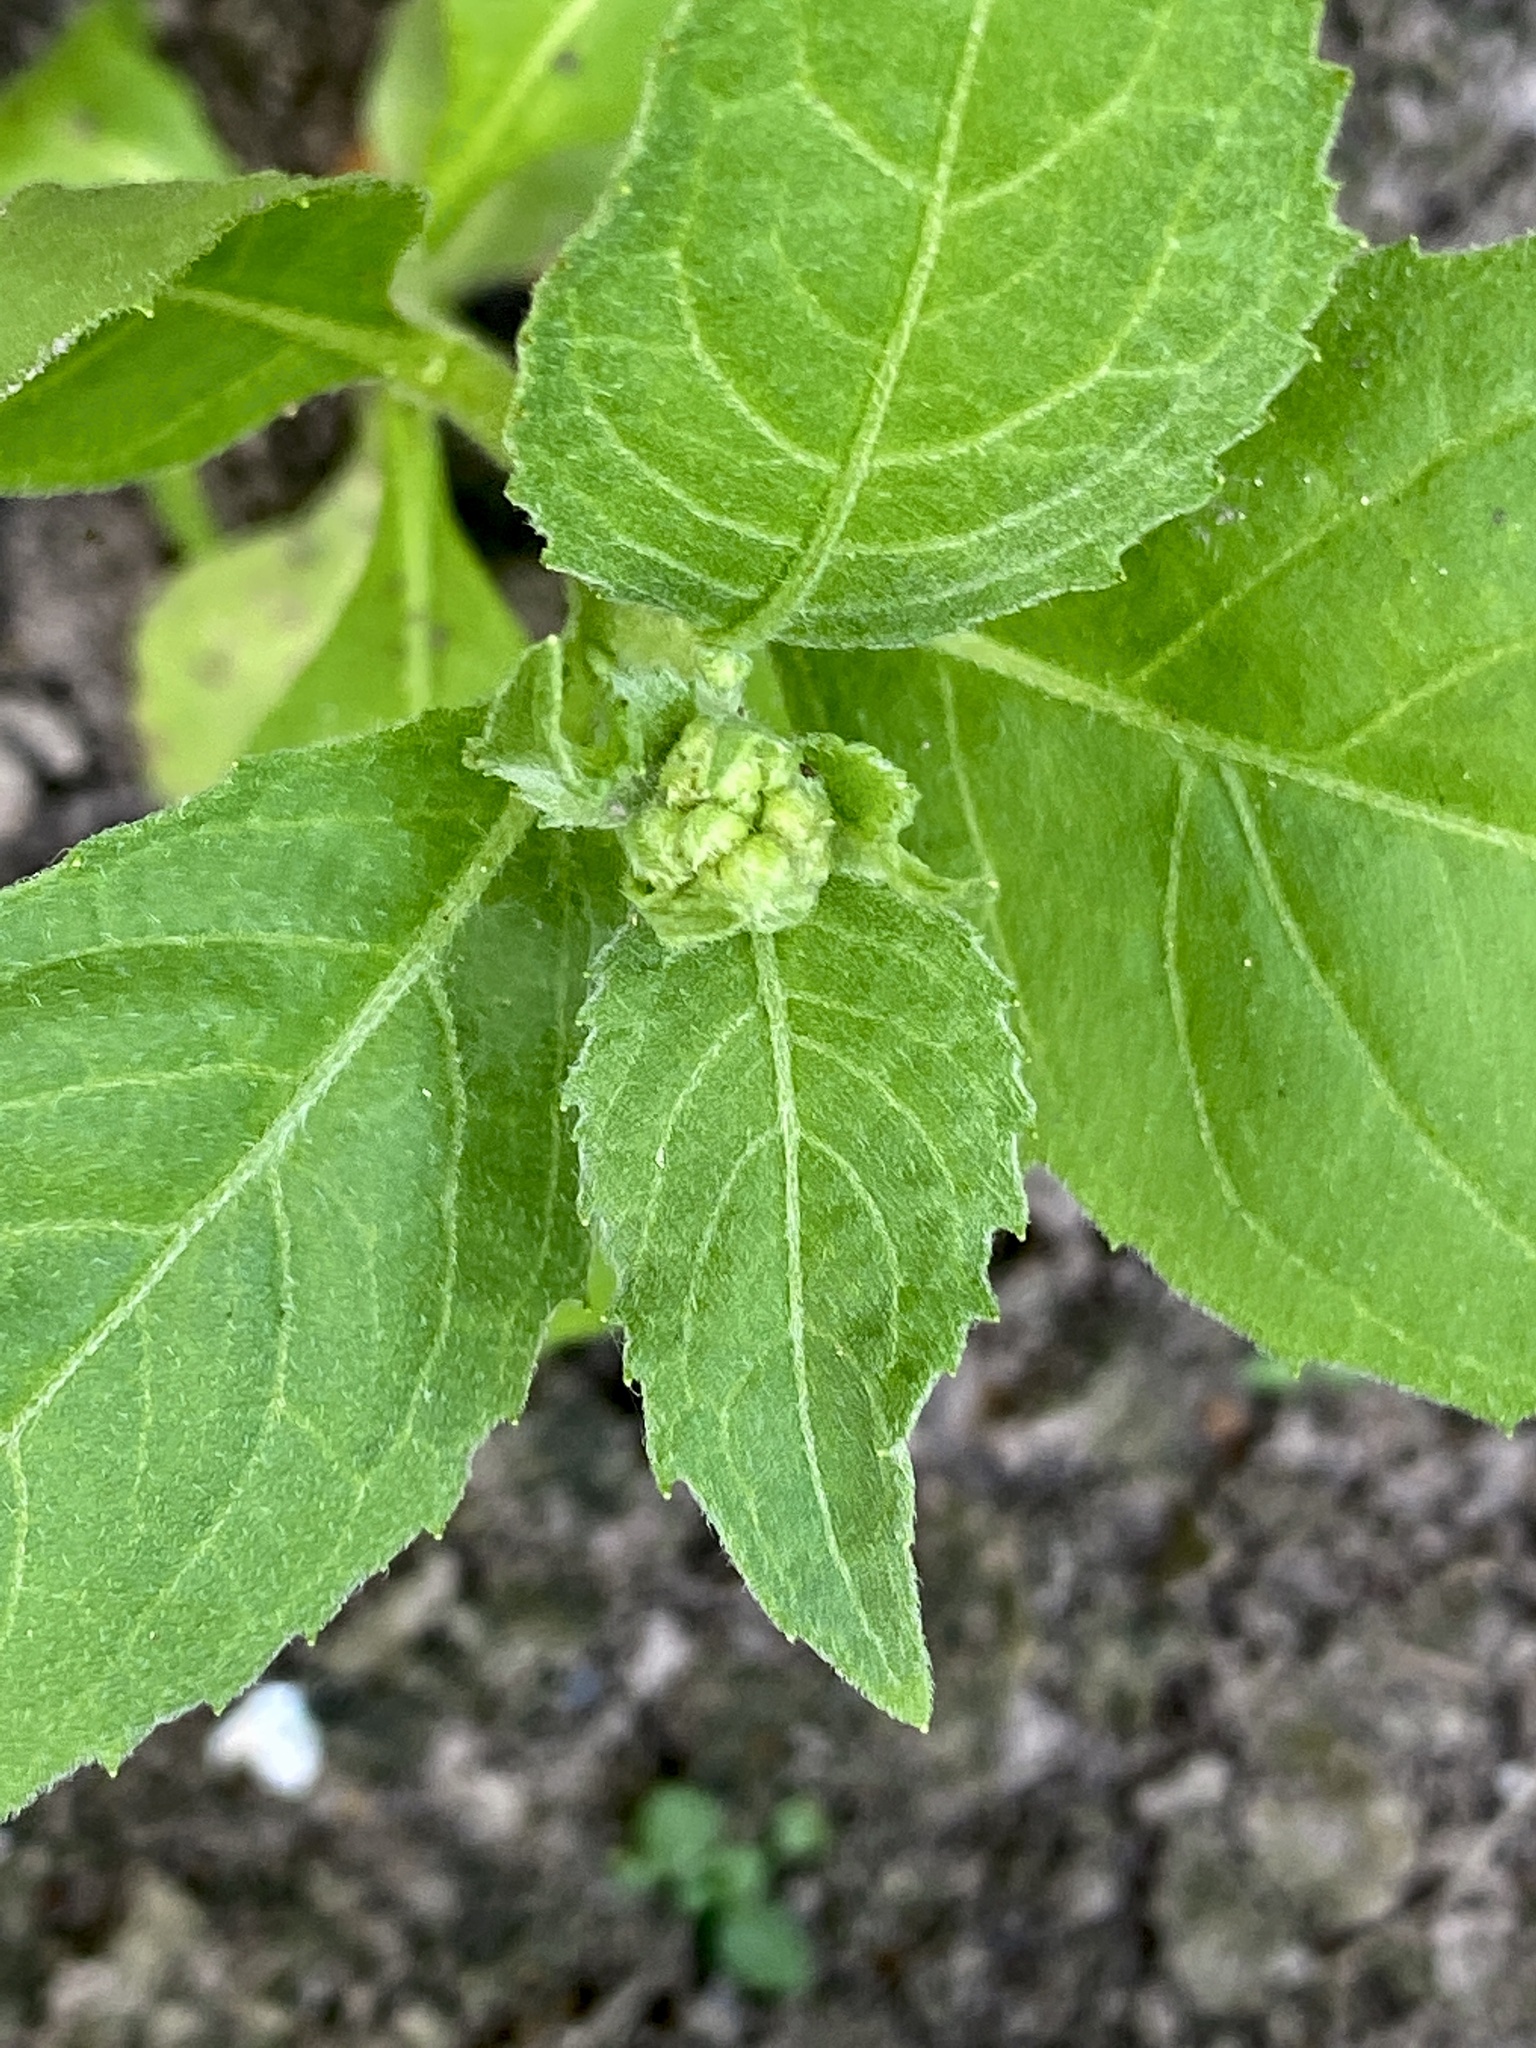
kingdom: Plantae
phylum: Tracheophyta
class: Magnoliopsida
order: Asterales
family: Asteraceae
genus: Pluchea
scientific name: Pluchea odorata
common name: Saltmarsh fleabane
